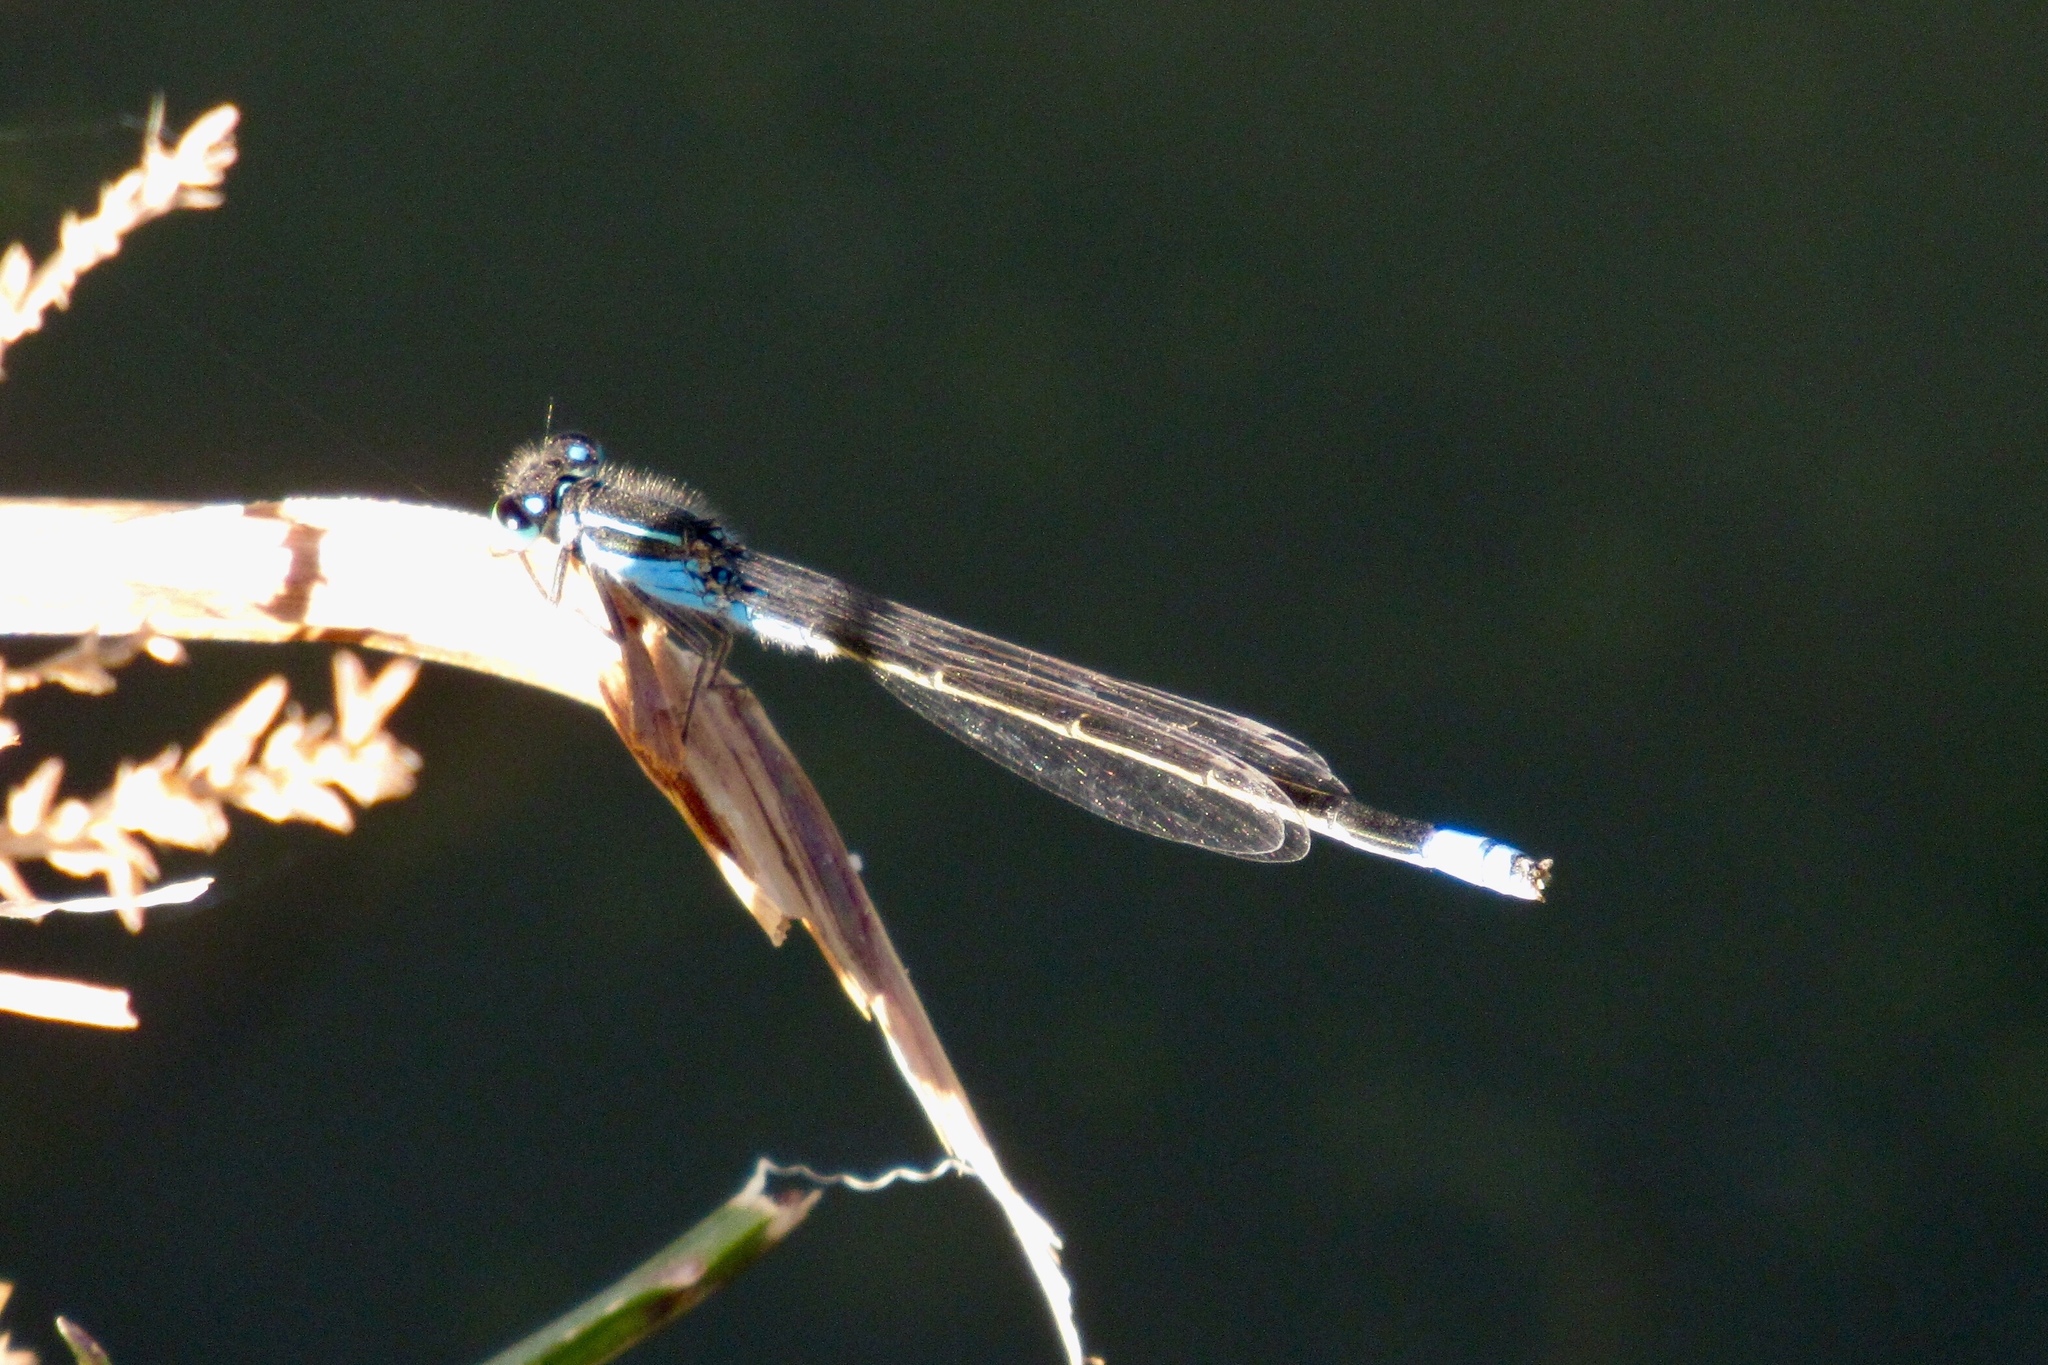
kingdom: Animalia
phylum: Arthropoda
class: Insecta
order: Odonata
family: Coenagrionidae
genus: Ischnura
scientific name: Ischnura ramburii
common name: Rambur's forktail
